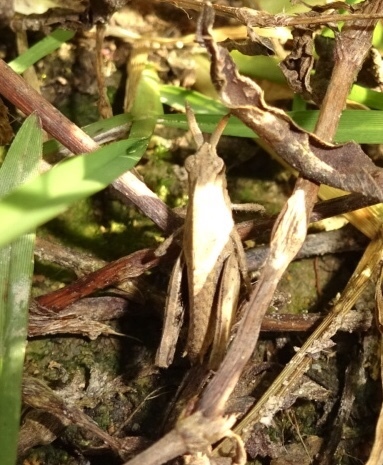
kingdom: Animalia
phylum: Arthropoda
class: Insecta
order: Orthoptera
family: Acrididae
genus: Chortophaga
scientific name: Chortophaga viridifasciata
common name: Green-striped grasshopper
